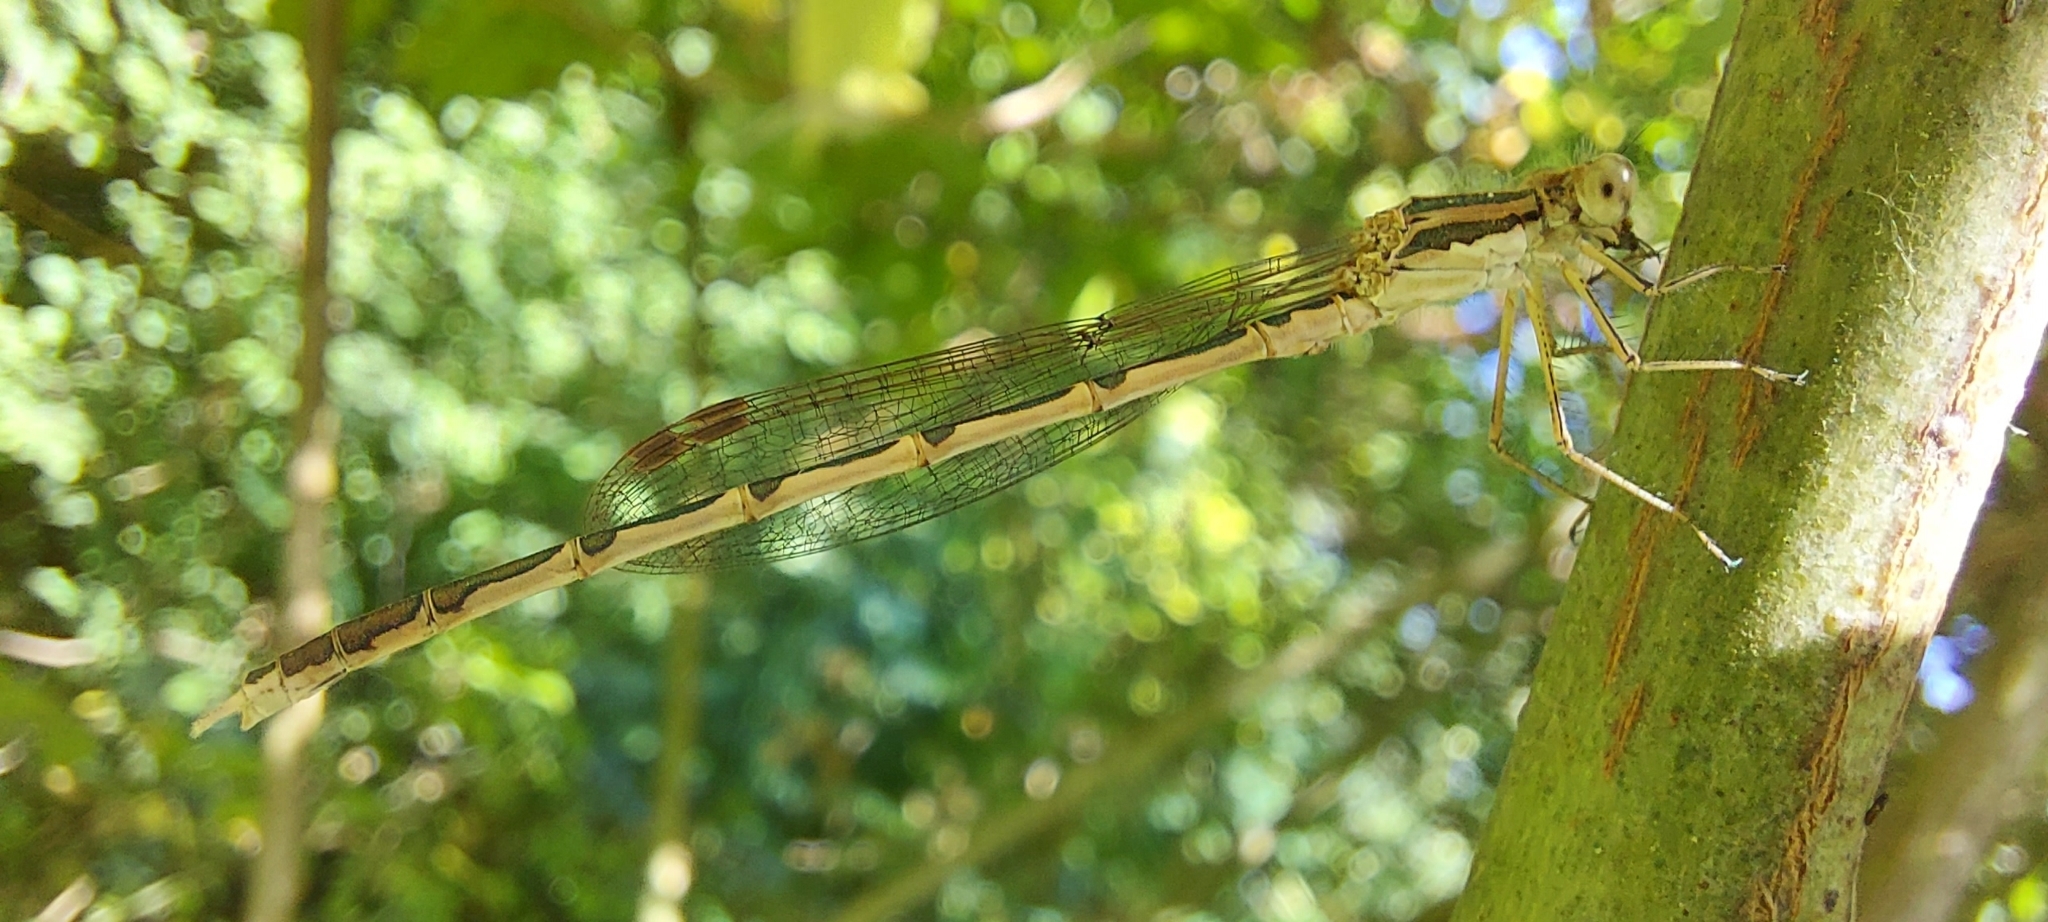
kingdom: Animalia
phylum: Arthropoda
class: Insecta
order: Odonata
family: Lestidae
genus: Sympecma
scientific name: Sympecma fusca
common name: Common winter damsel
